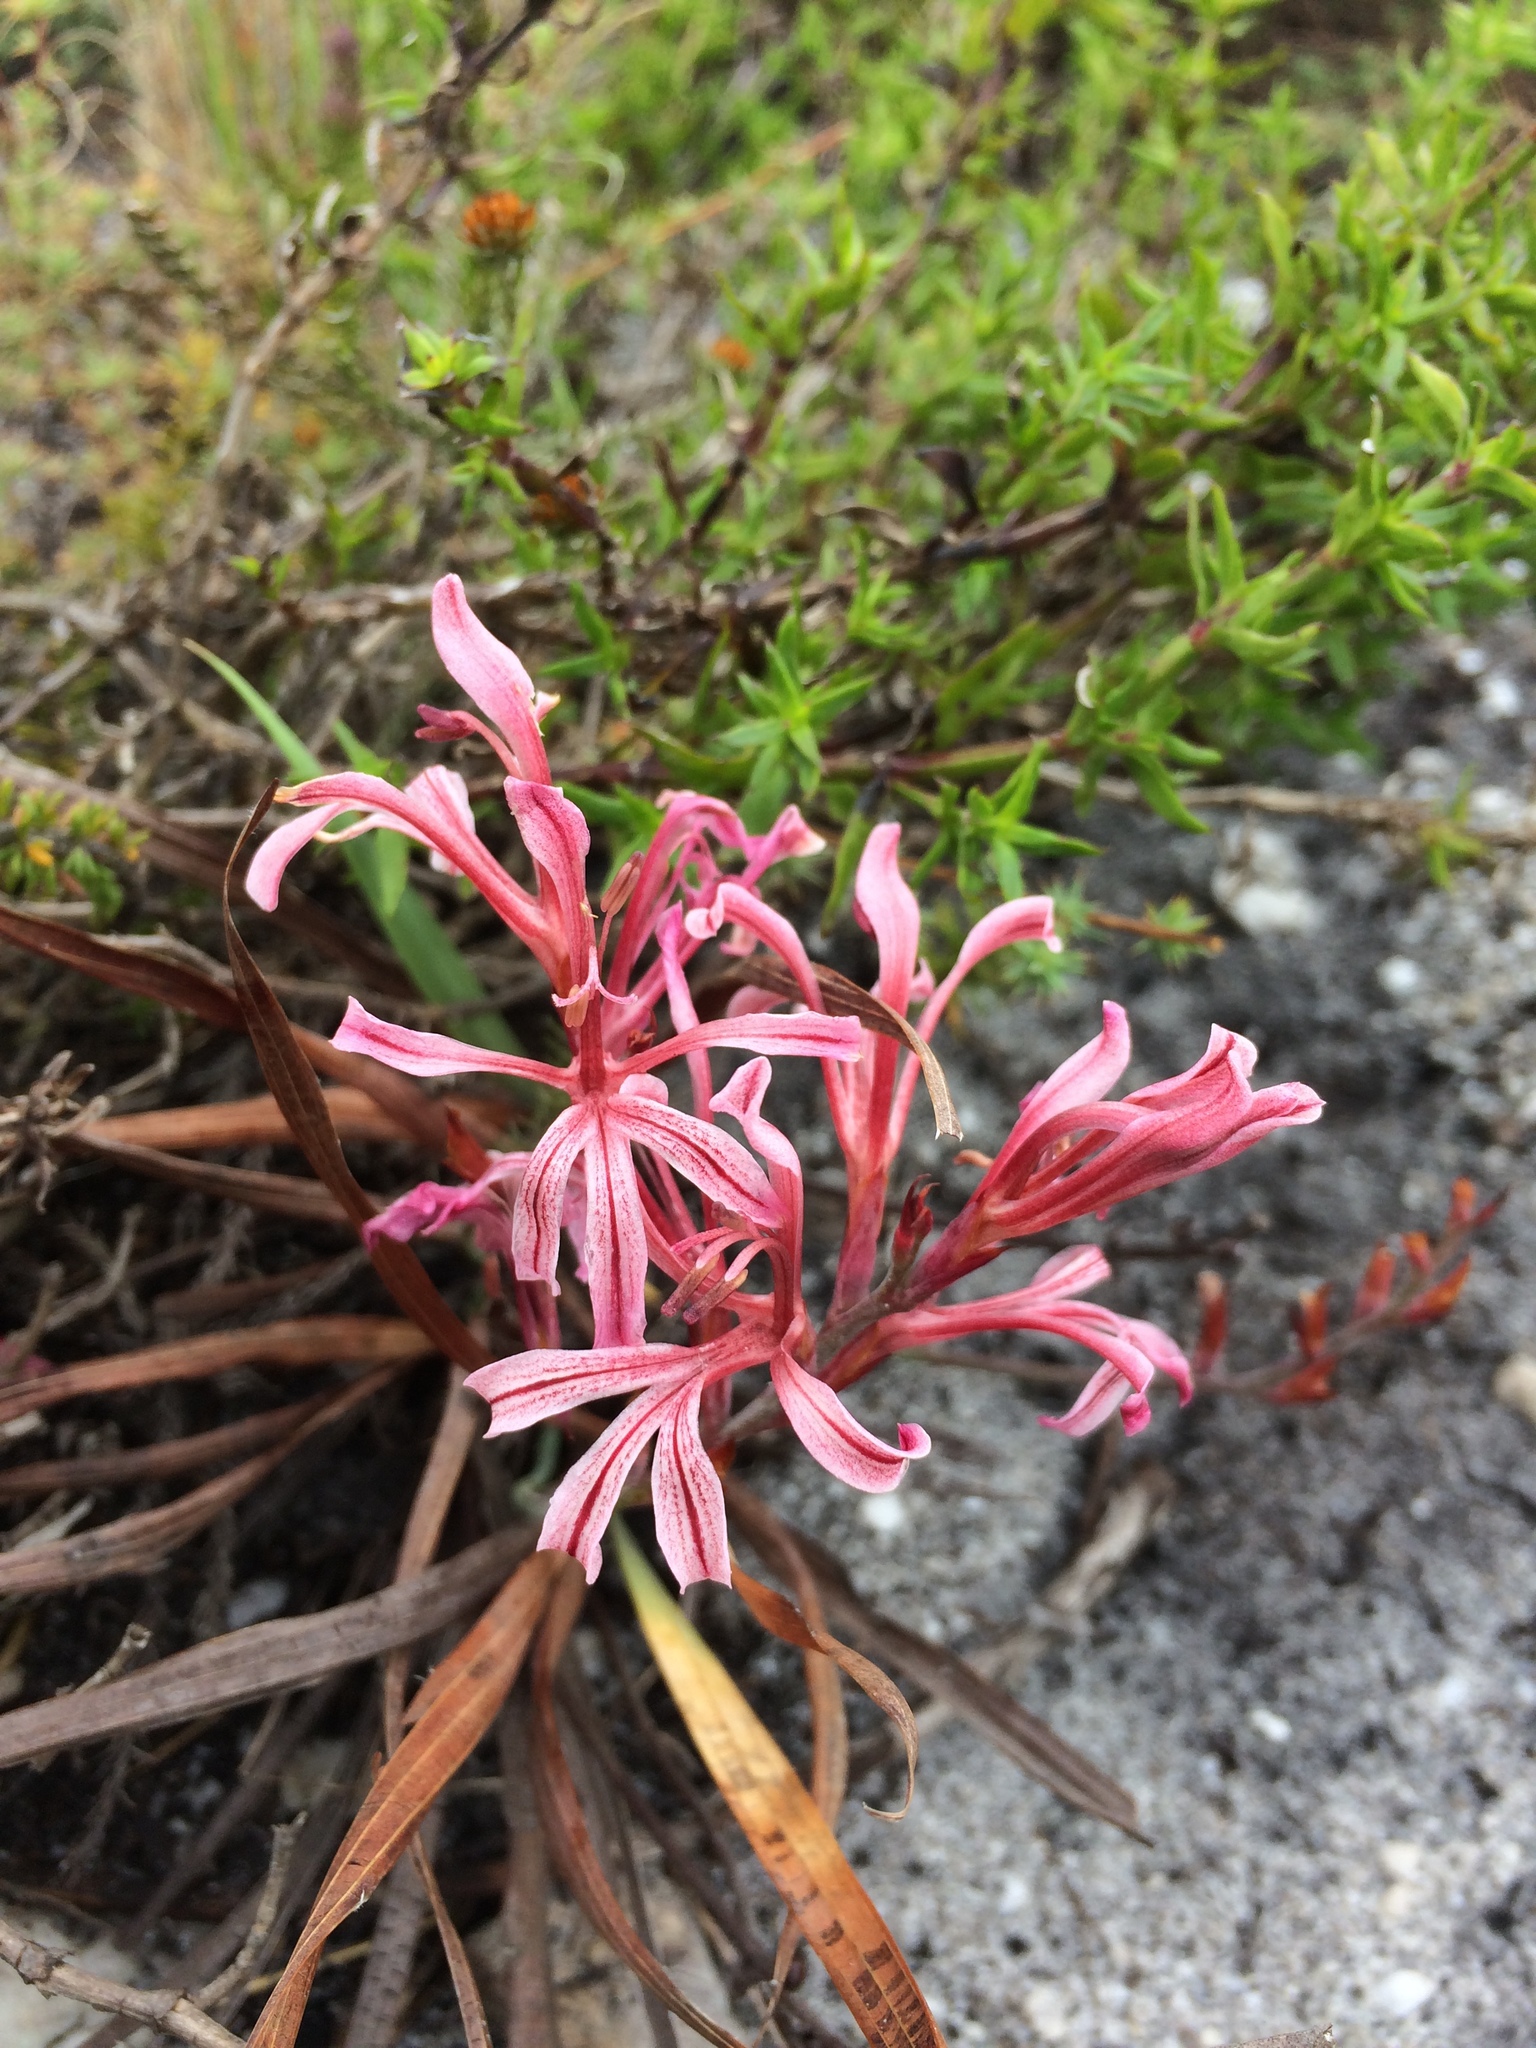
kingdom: Plantae
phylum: Tracheophyta
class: Liliopsida
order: Asparagales
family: Iridaceae
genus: Tritoniopsis
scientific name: Tritoniopsis revoluta
